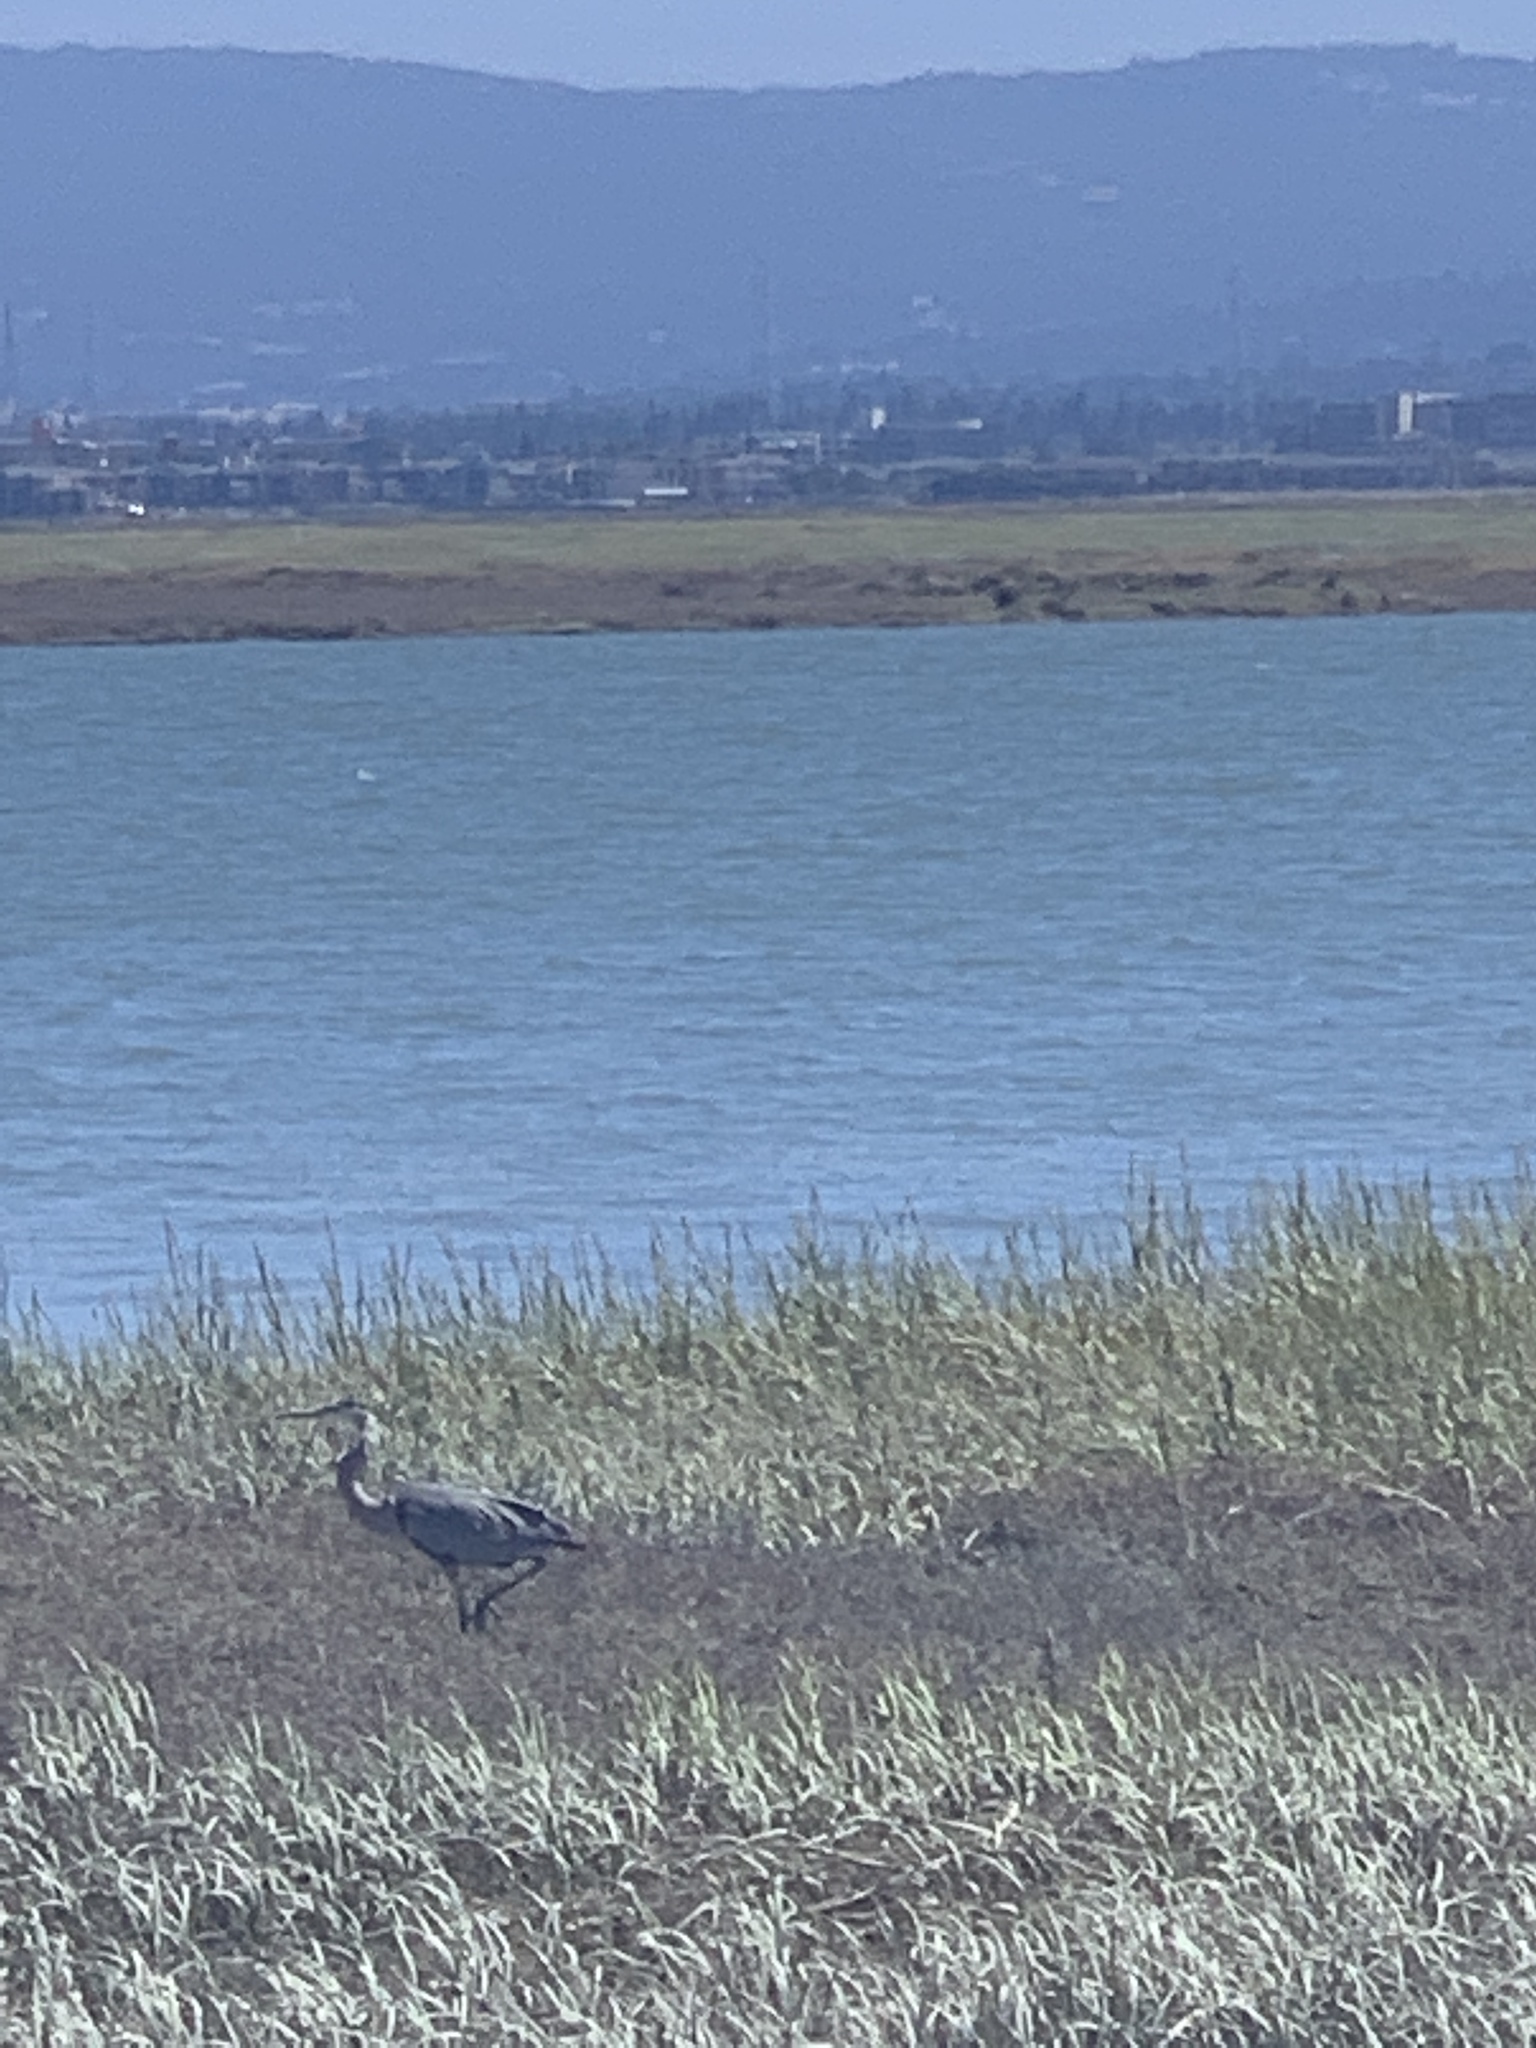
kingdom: Animalia
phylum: Chordata
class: Aves
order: Pelecaniformes
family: Ardeidae
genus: Ardea
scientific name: Ardea herodias
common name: Great blue heron
